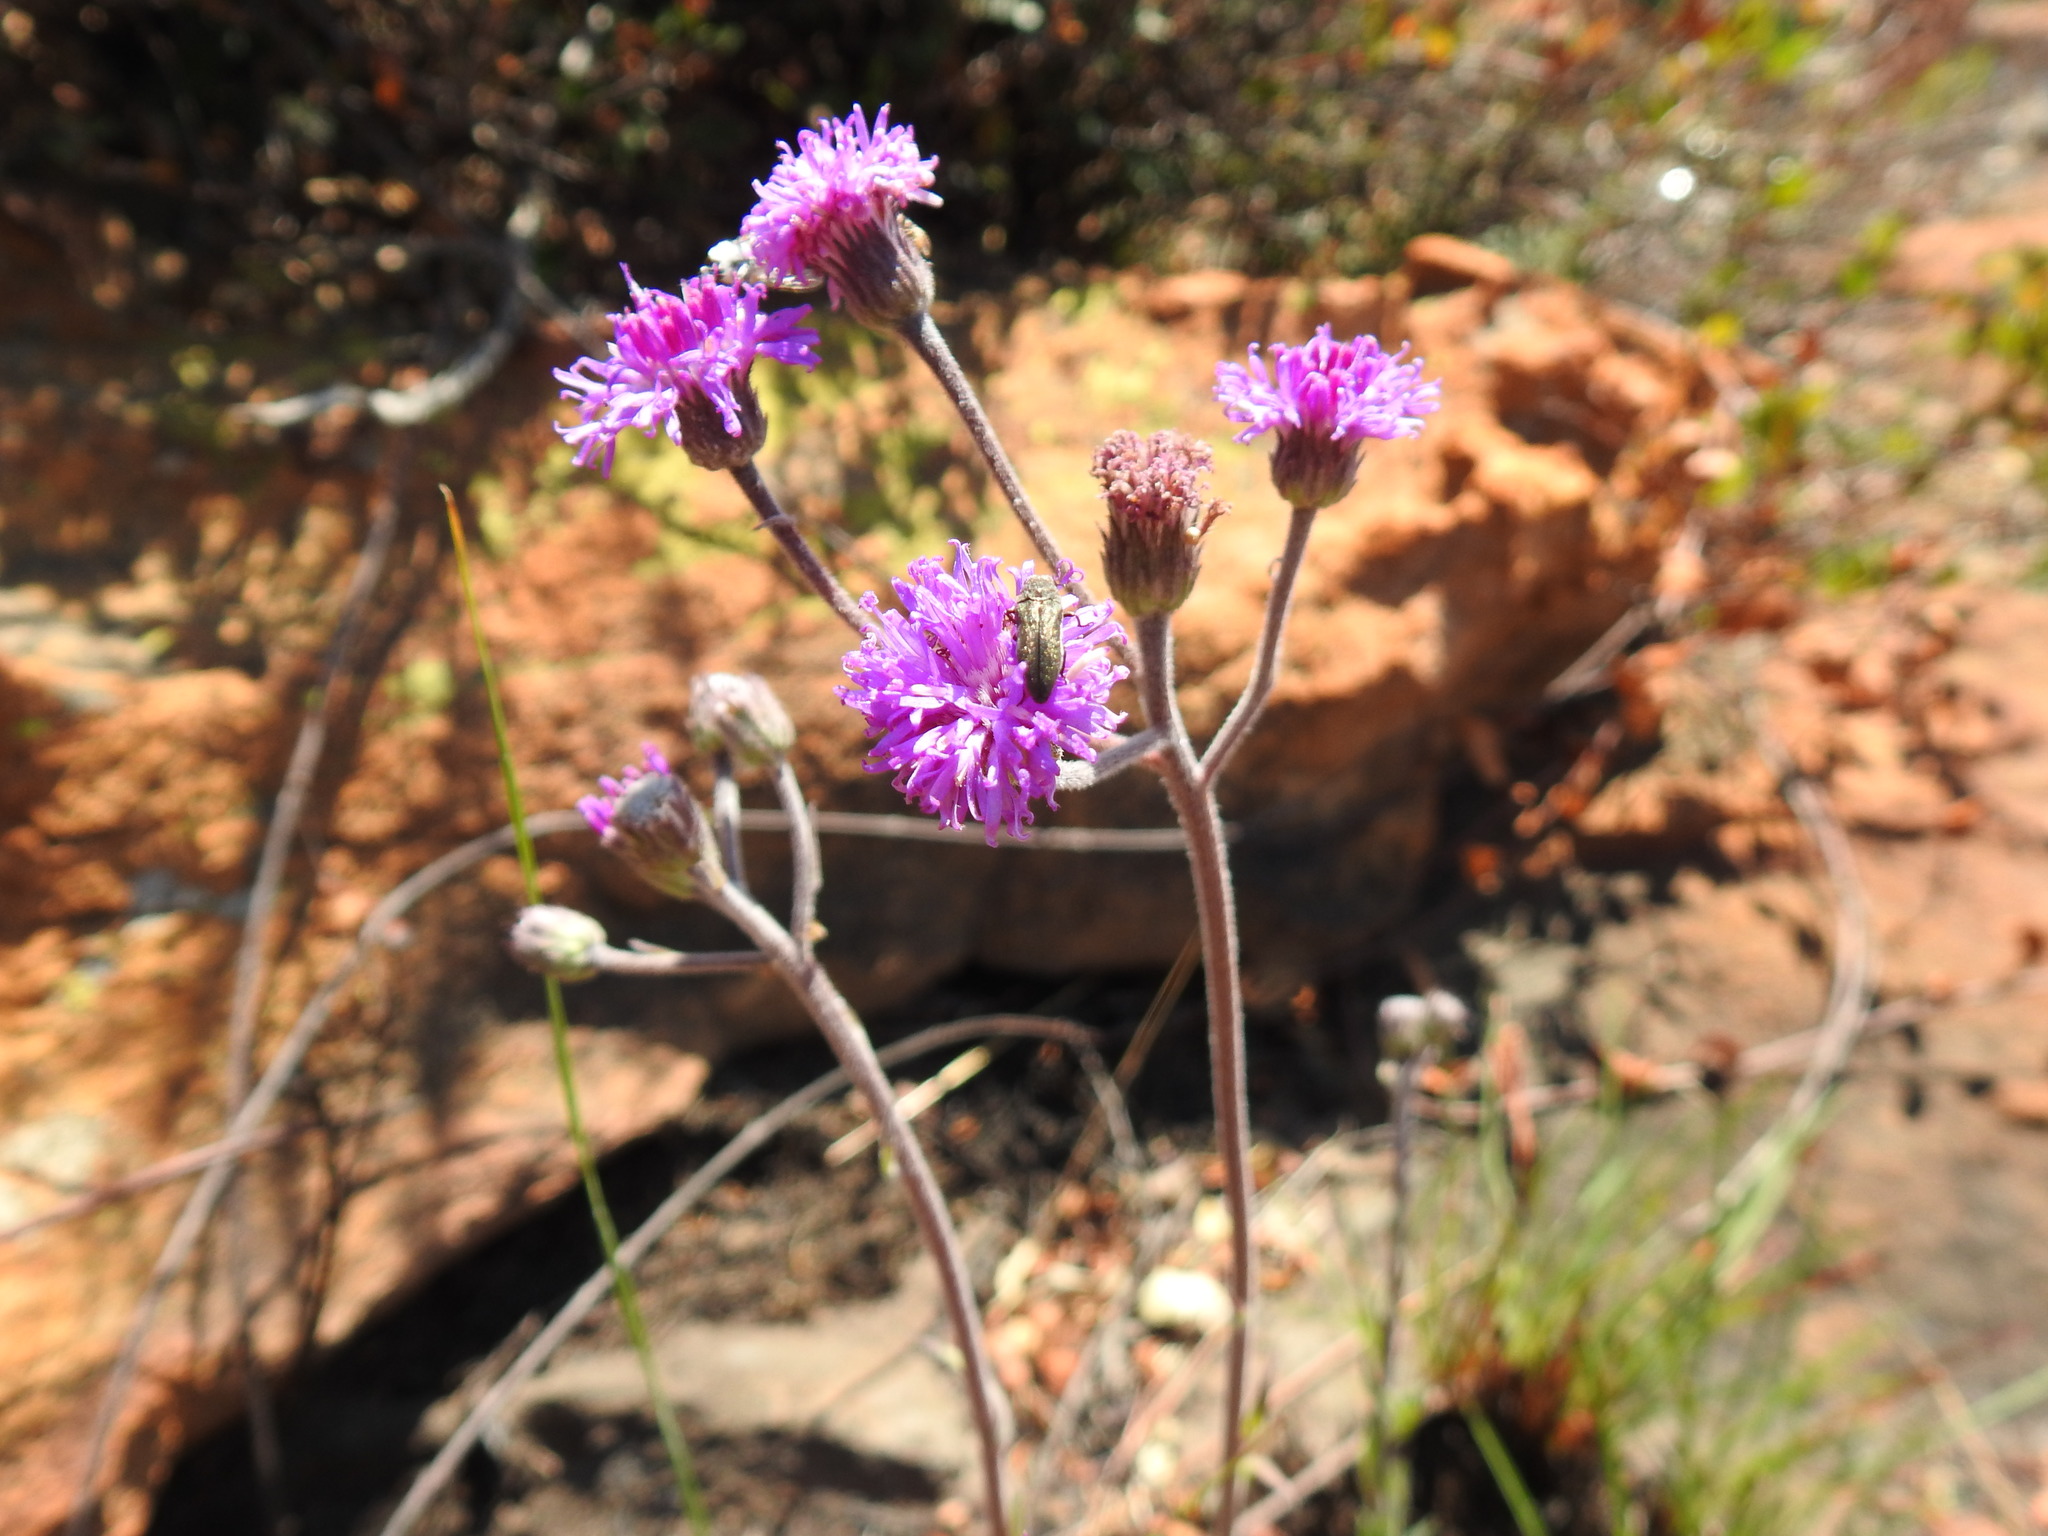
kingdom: Plantae
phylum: Tracheophyta
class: Magnoliopsida
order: Asterales
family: Asteraceae
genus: Hilliardiella
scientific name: Hilliardiella sutherlandii
